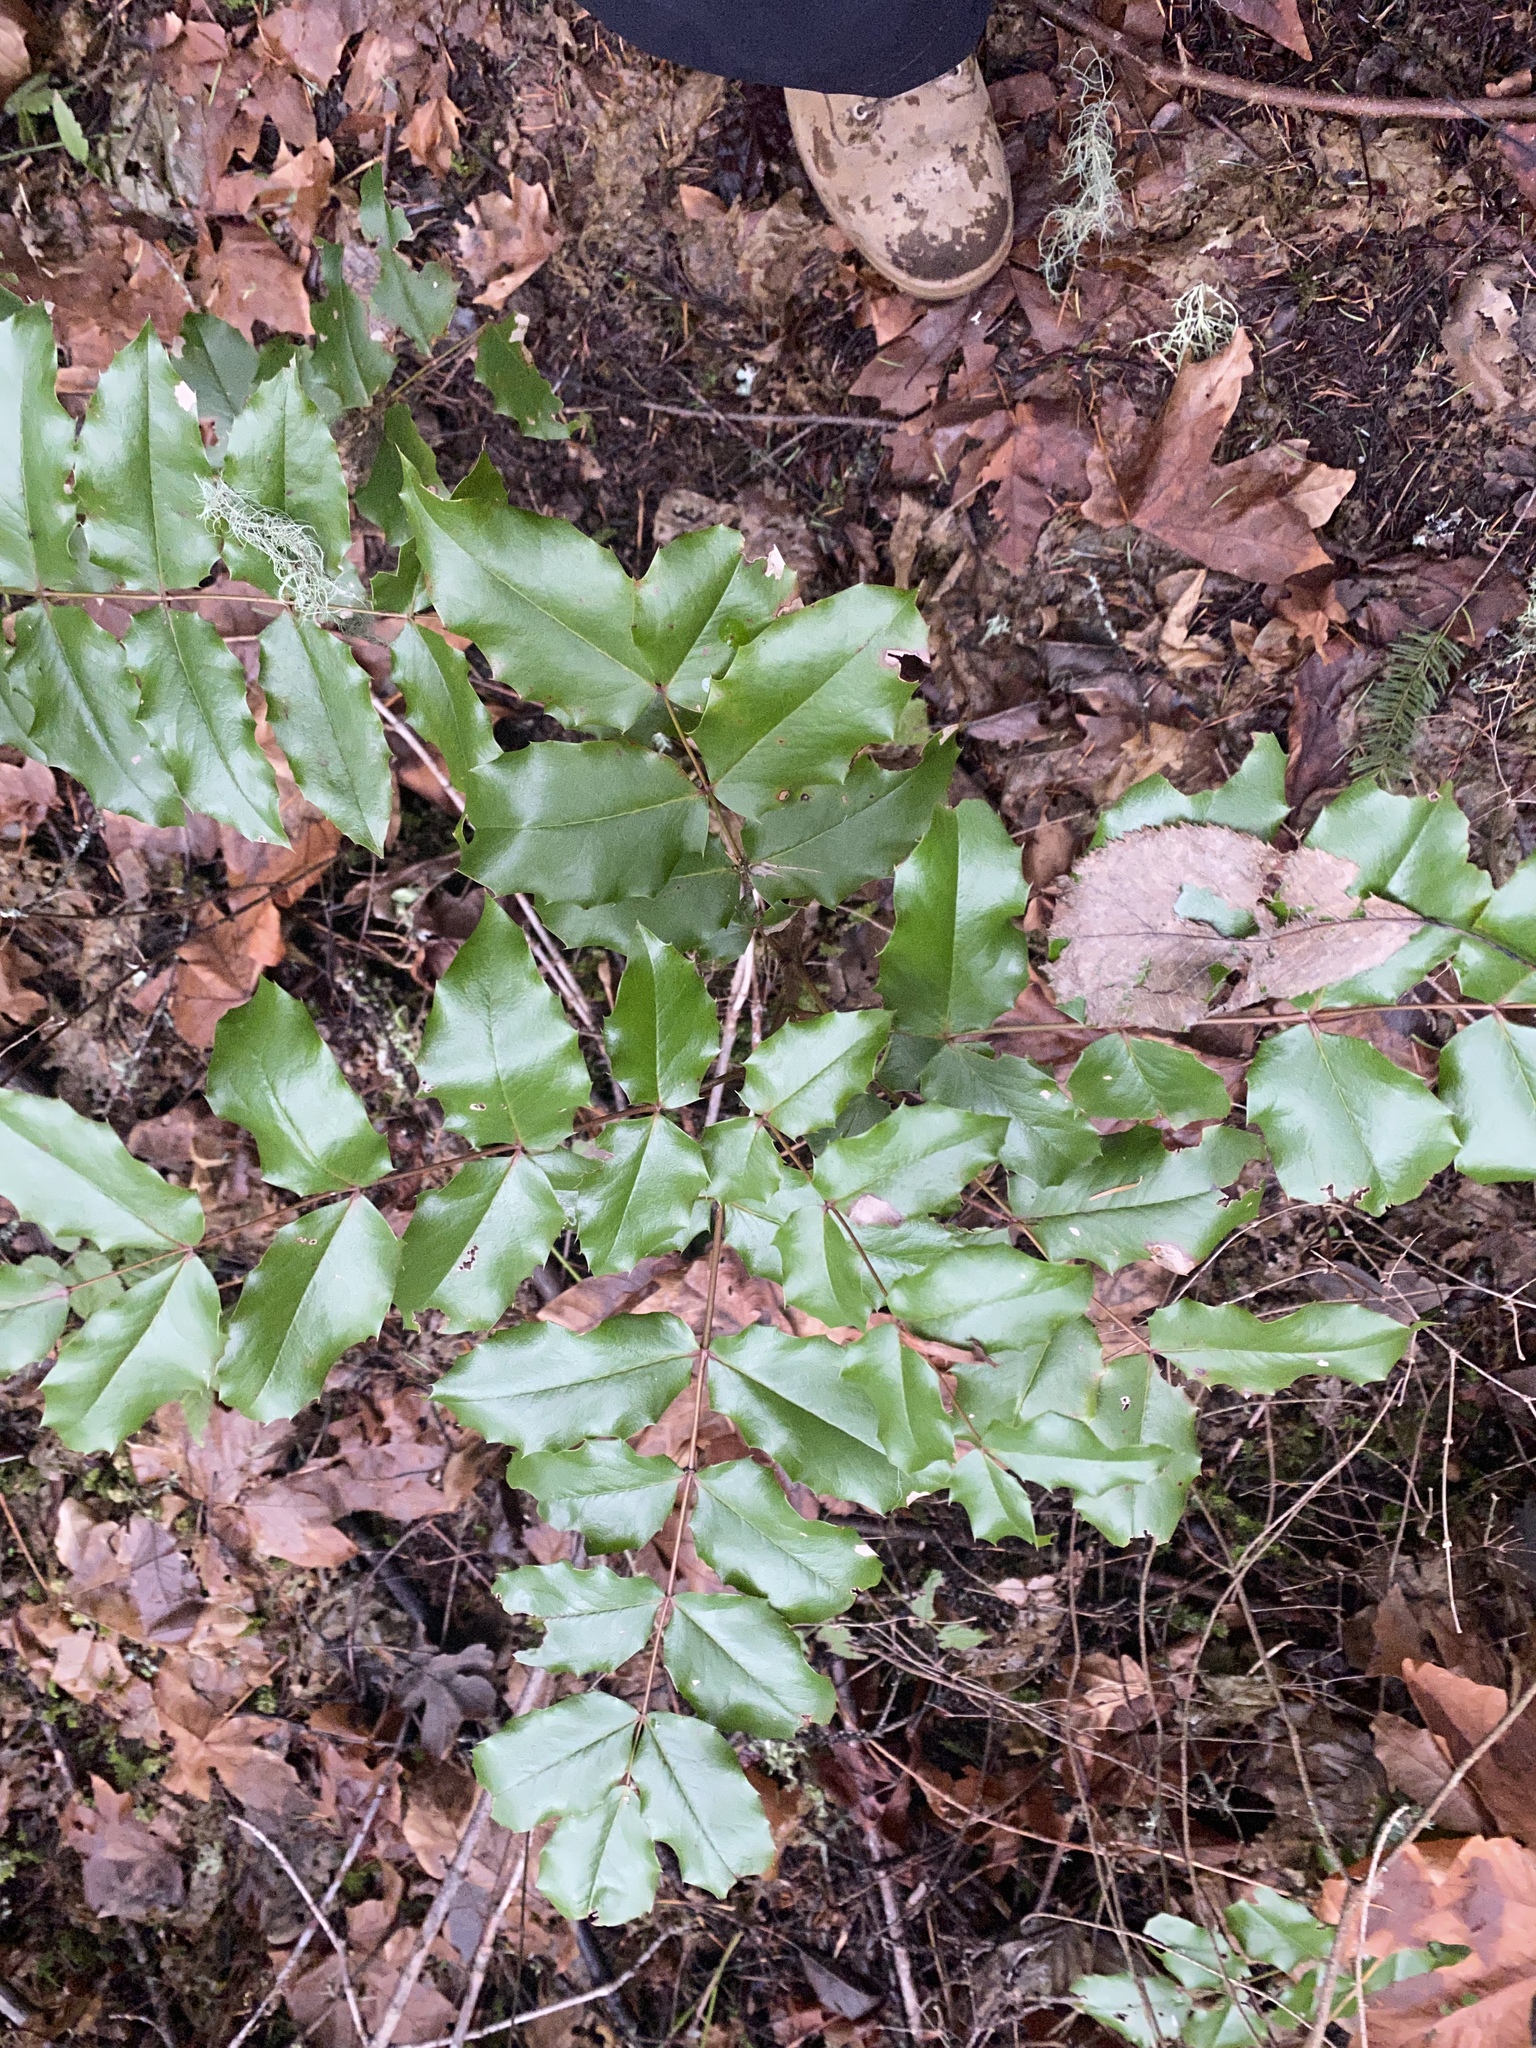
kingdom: Plantae
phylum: Tracheophyta
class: Magnoliopsida
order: Ranunculales
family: Berberidaceae
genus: Mahonia
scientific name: Mahonia aquifolium
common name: Oregon-grape
